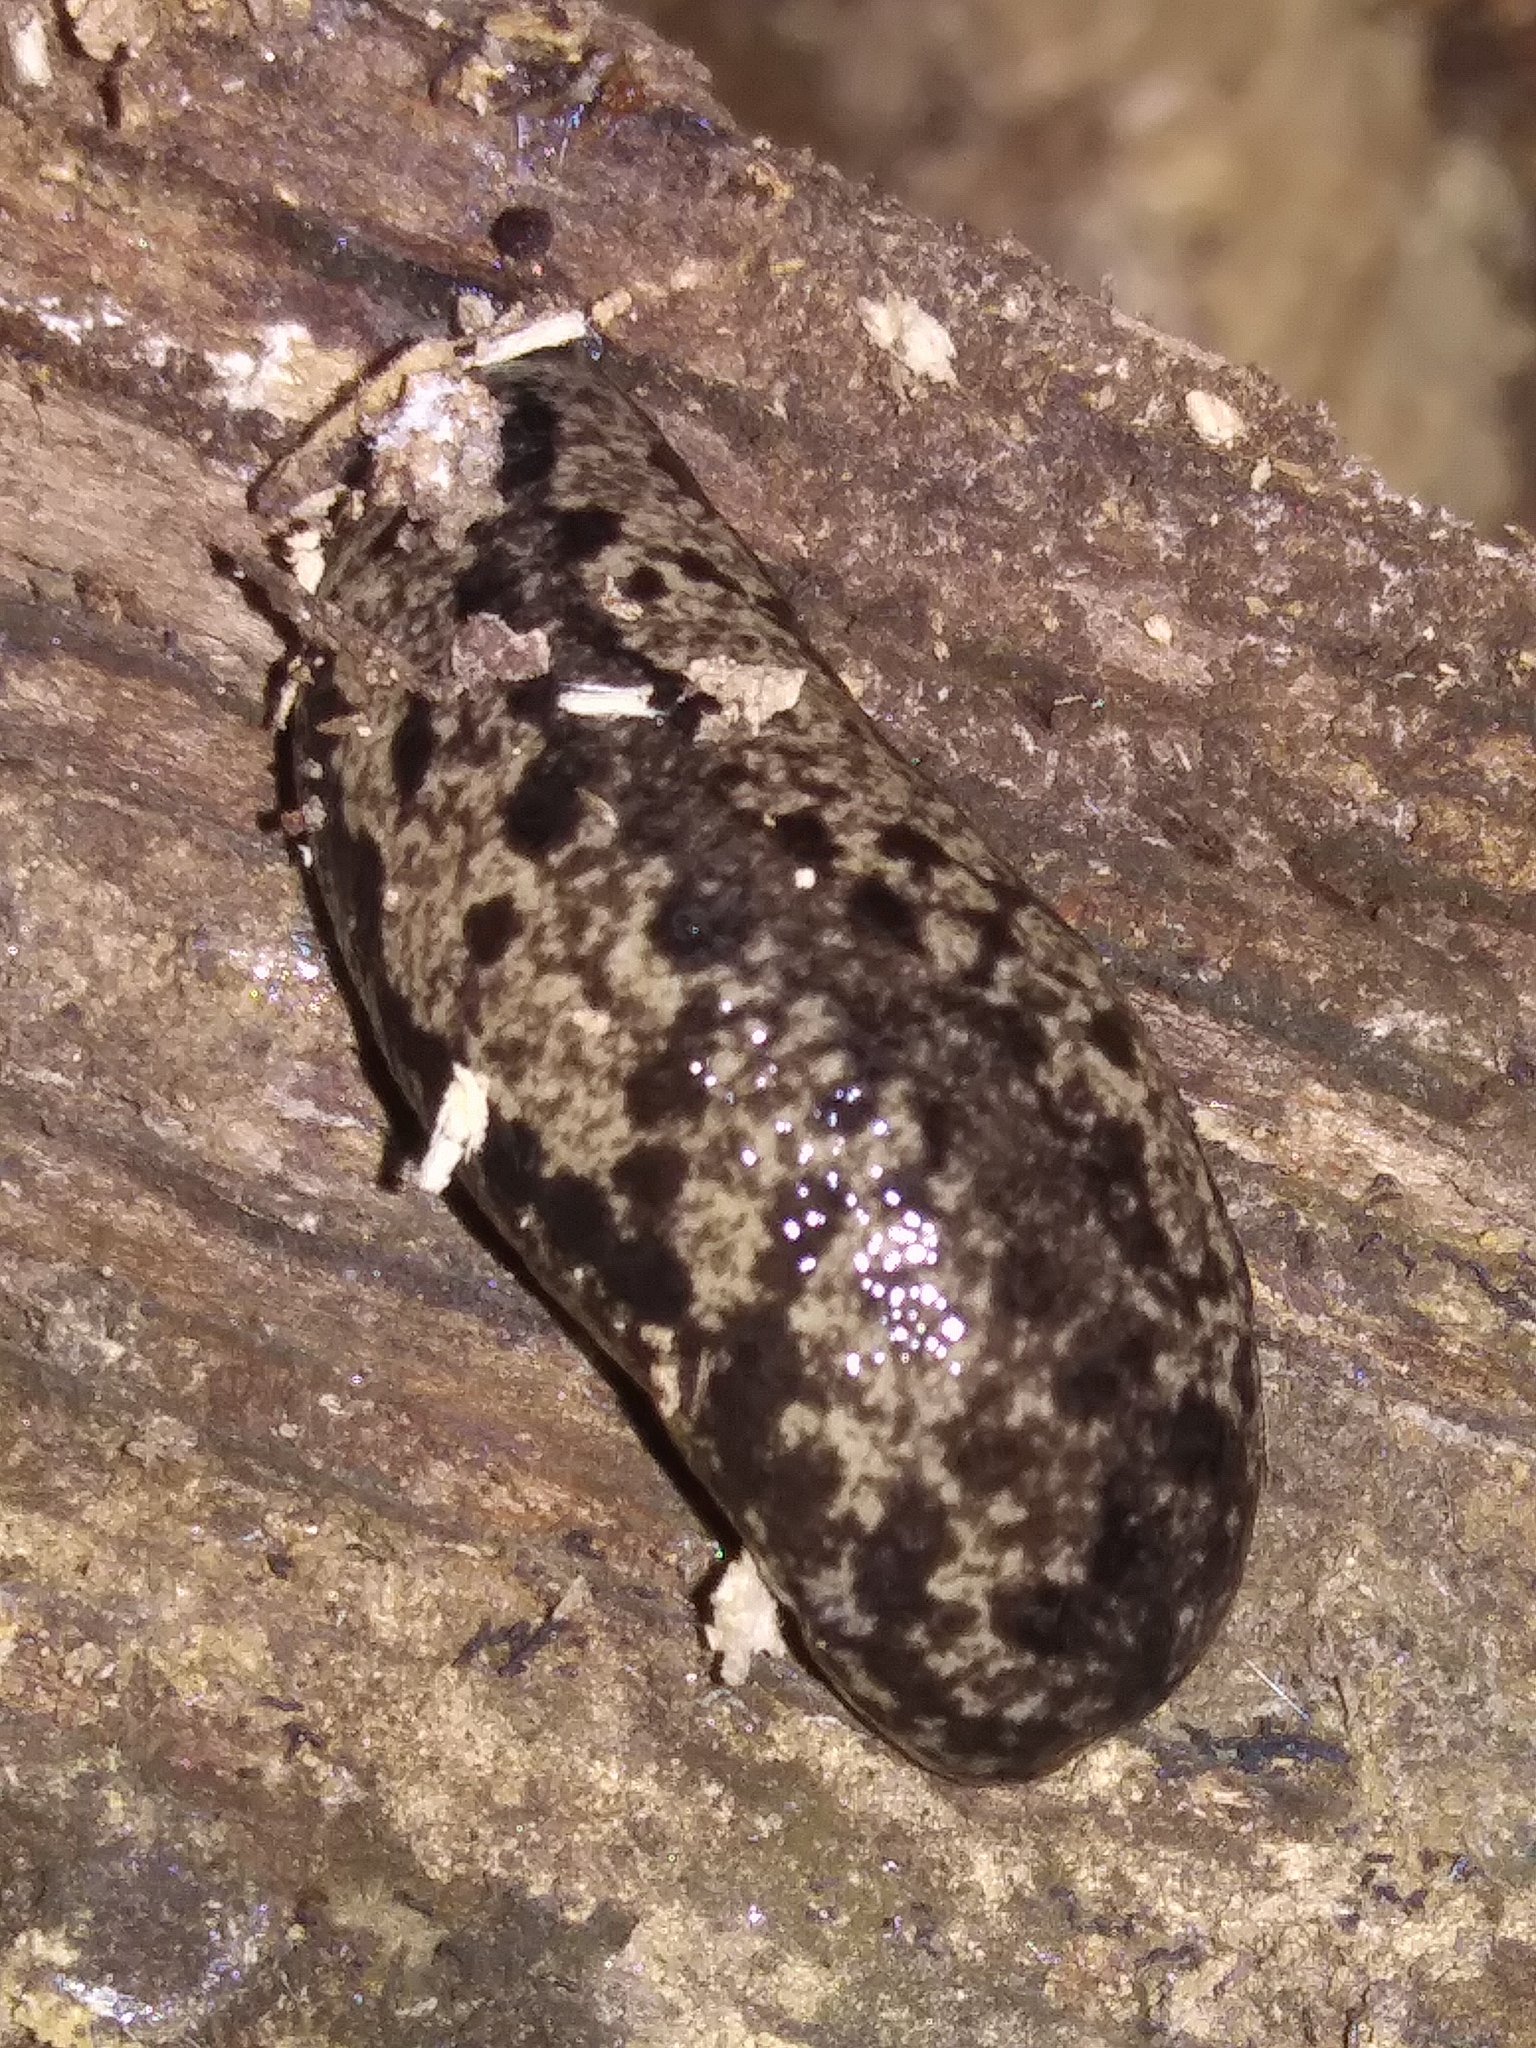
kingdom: Animalia
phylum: Mollusca
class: Gastropoda
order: Stylommatophora
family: Philomycidae
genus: Megapallifera
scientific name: Megapallifera mutabilis
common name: Changeable mantleslug
